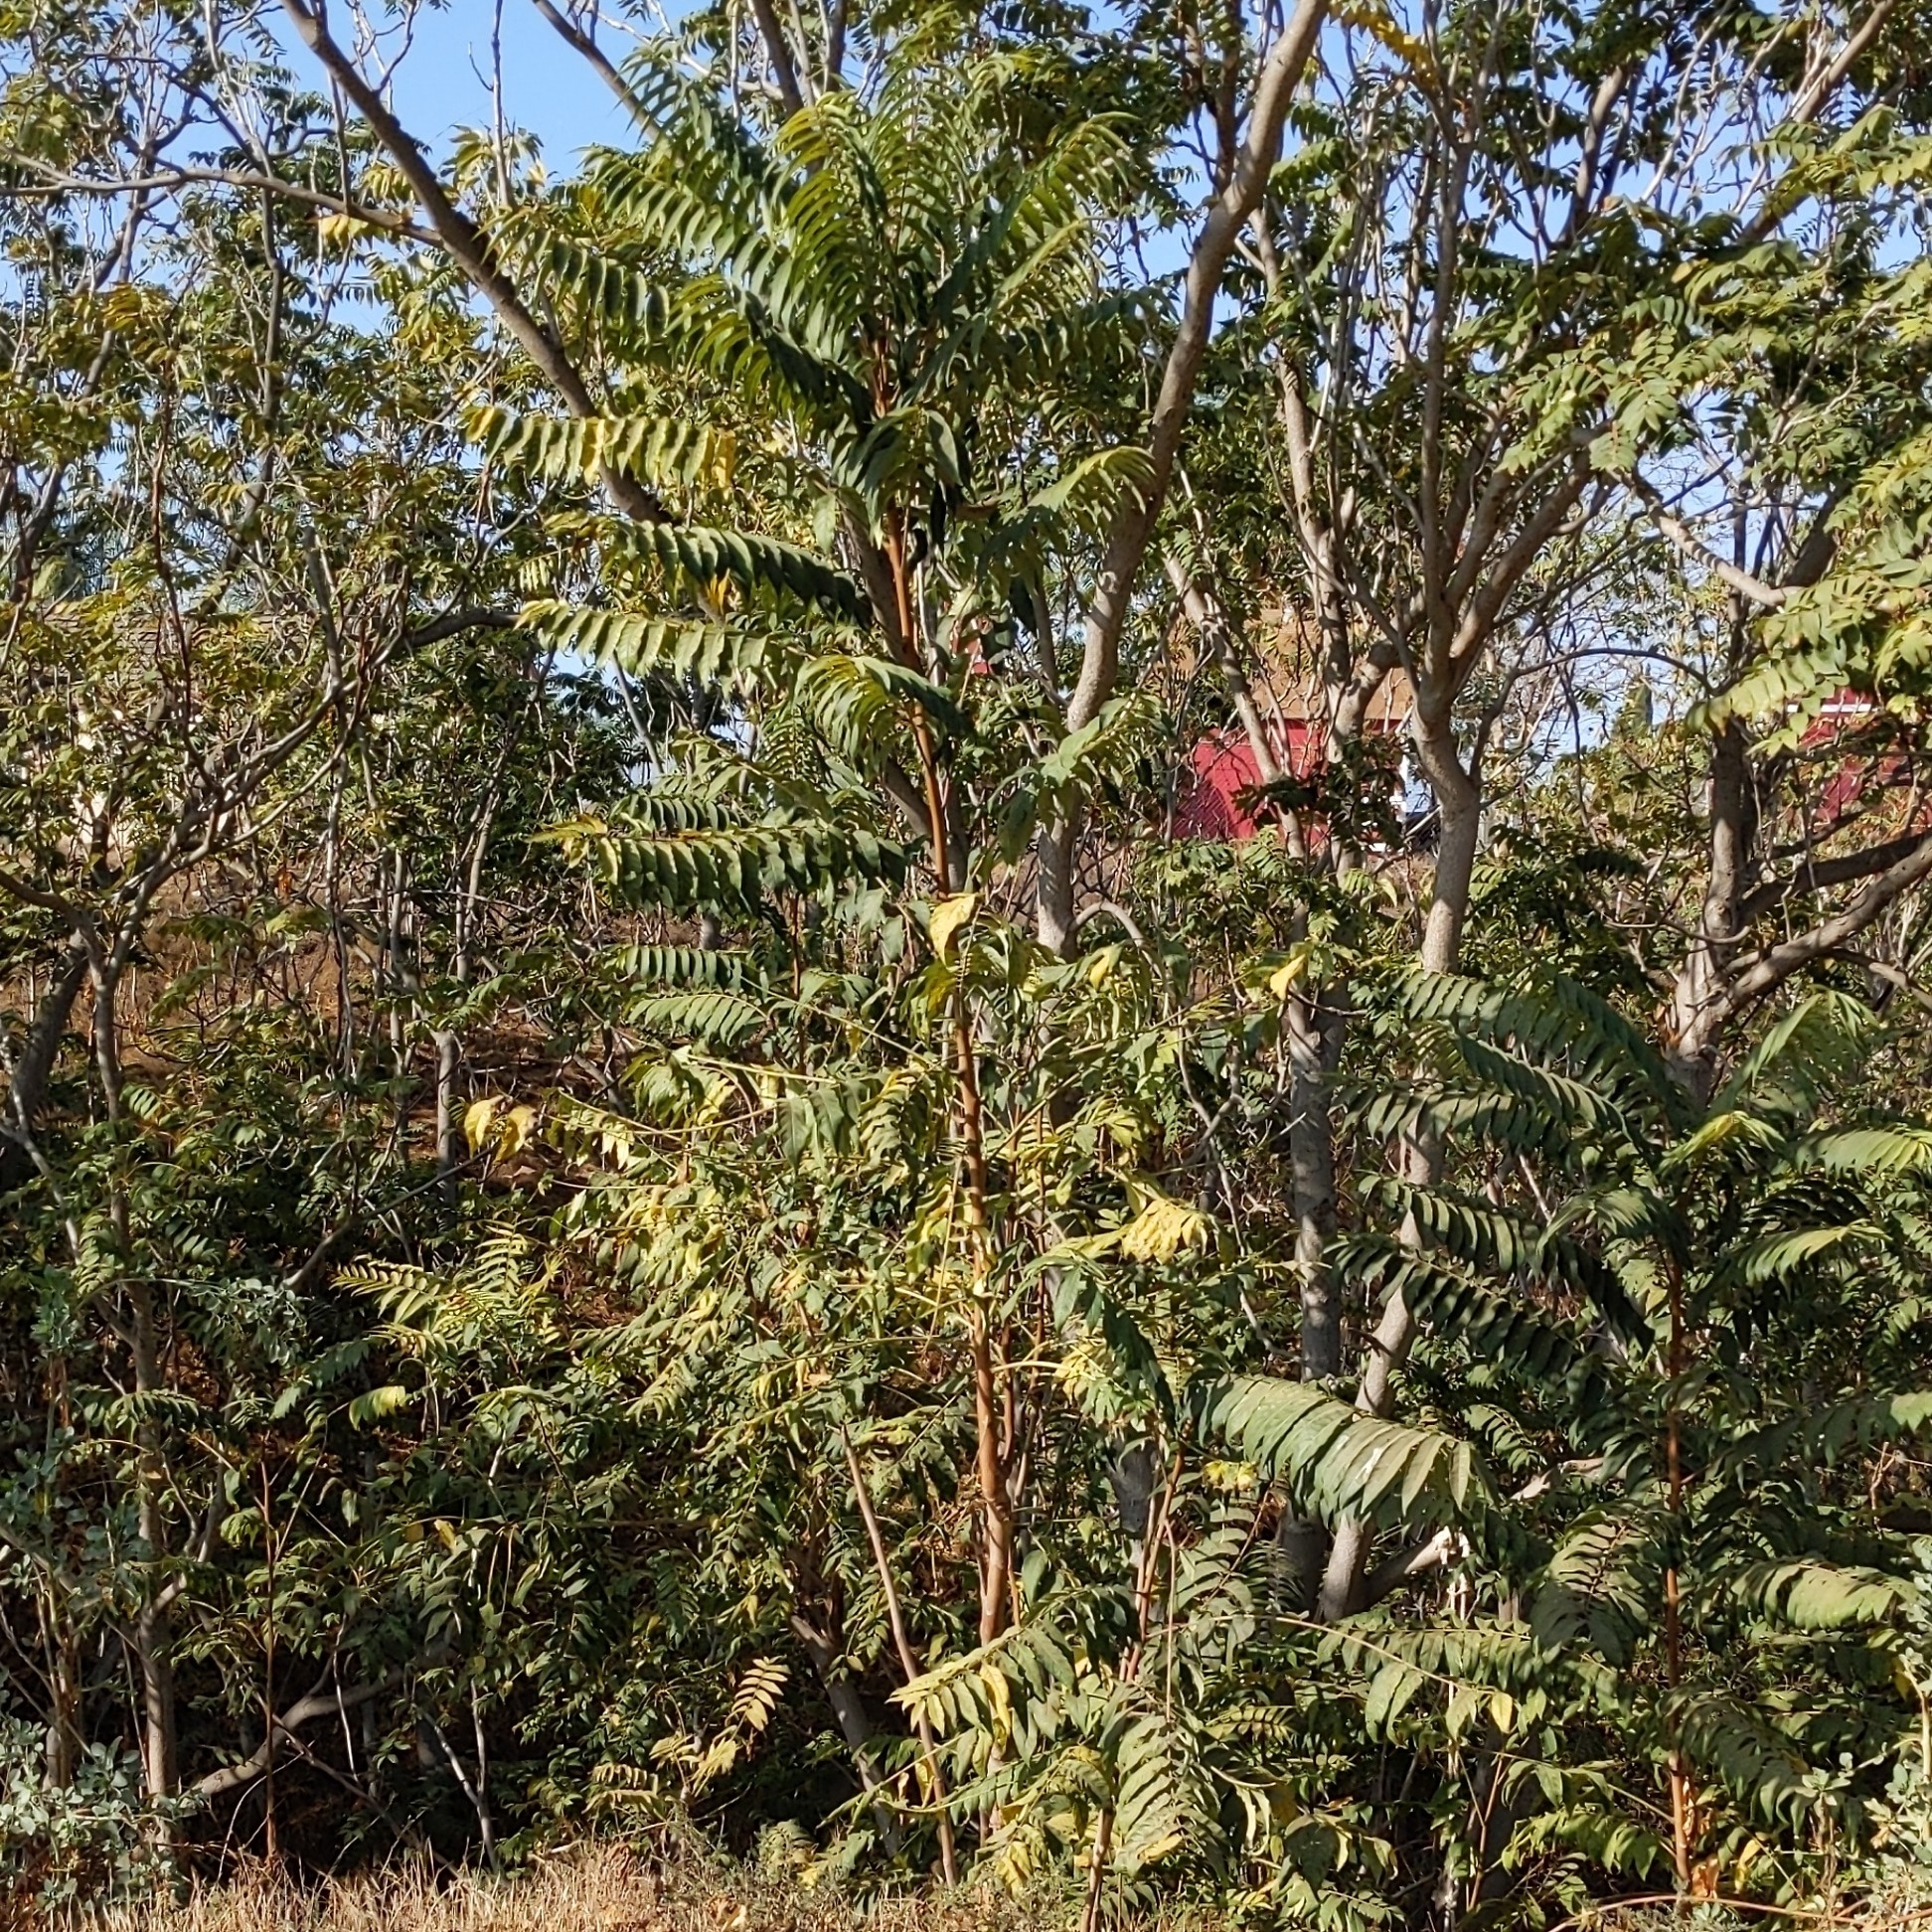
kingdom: Plantae
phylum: Tracheophyta
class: Magnoliopsida
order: Sapindales
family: Simaroubaceae
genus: Ailanthus
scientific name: Ailanthus altissima
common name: Tree-of-heaven
